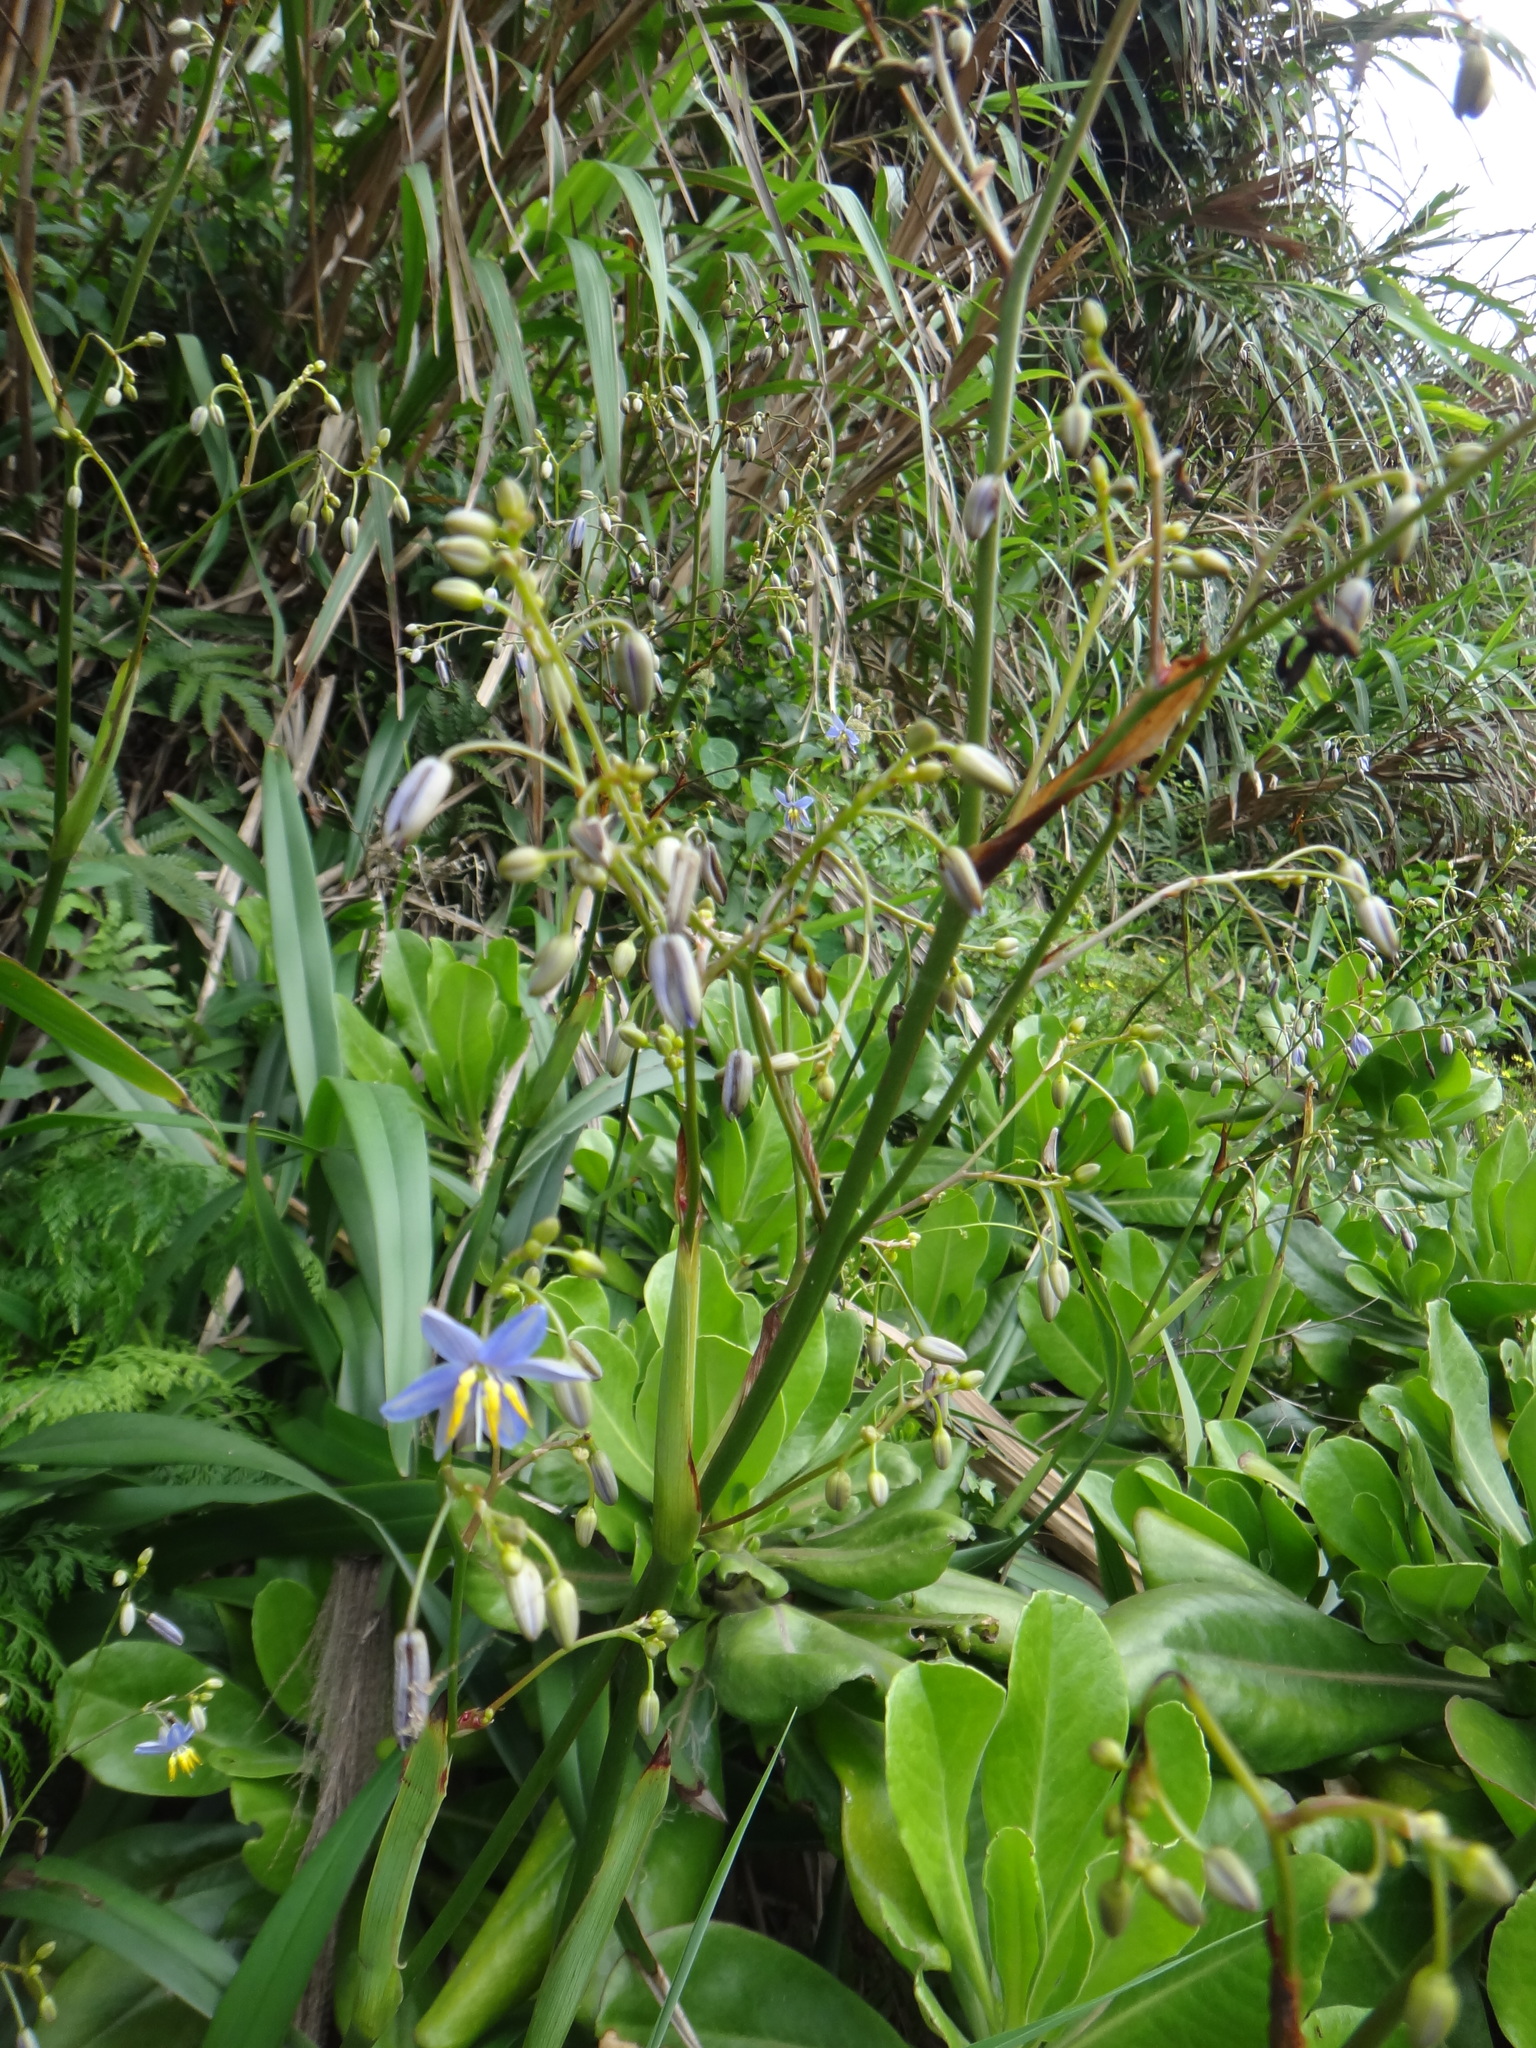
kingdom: Plantae
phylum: Tracheophyta
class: Liliopsida
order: Asparagales
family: Asphodelaceae
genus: Dianella
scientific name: Dianella ensifolia
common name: New zealand lilyplant
